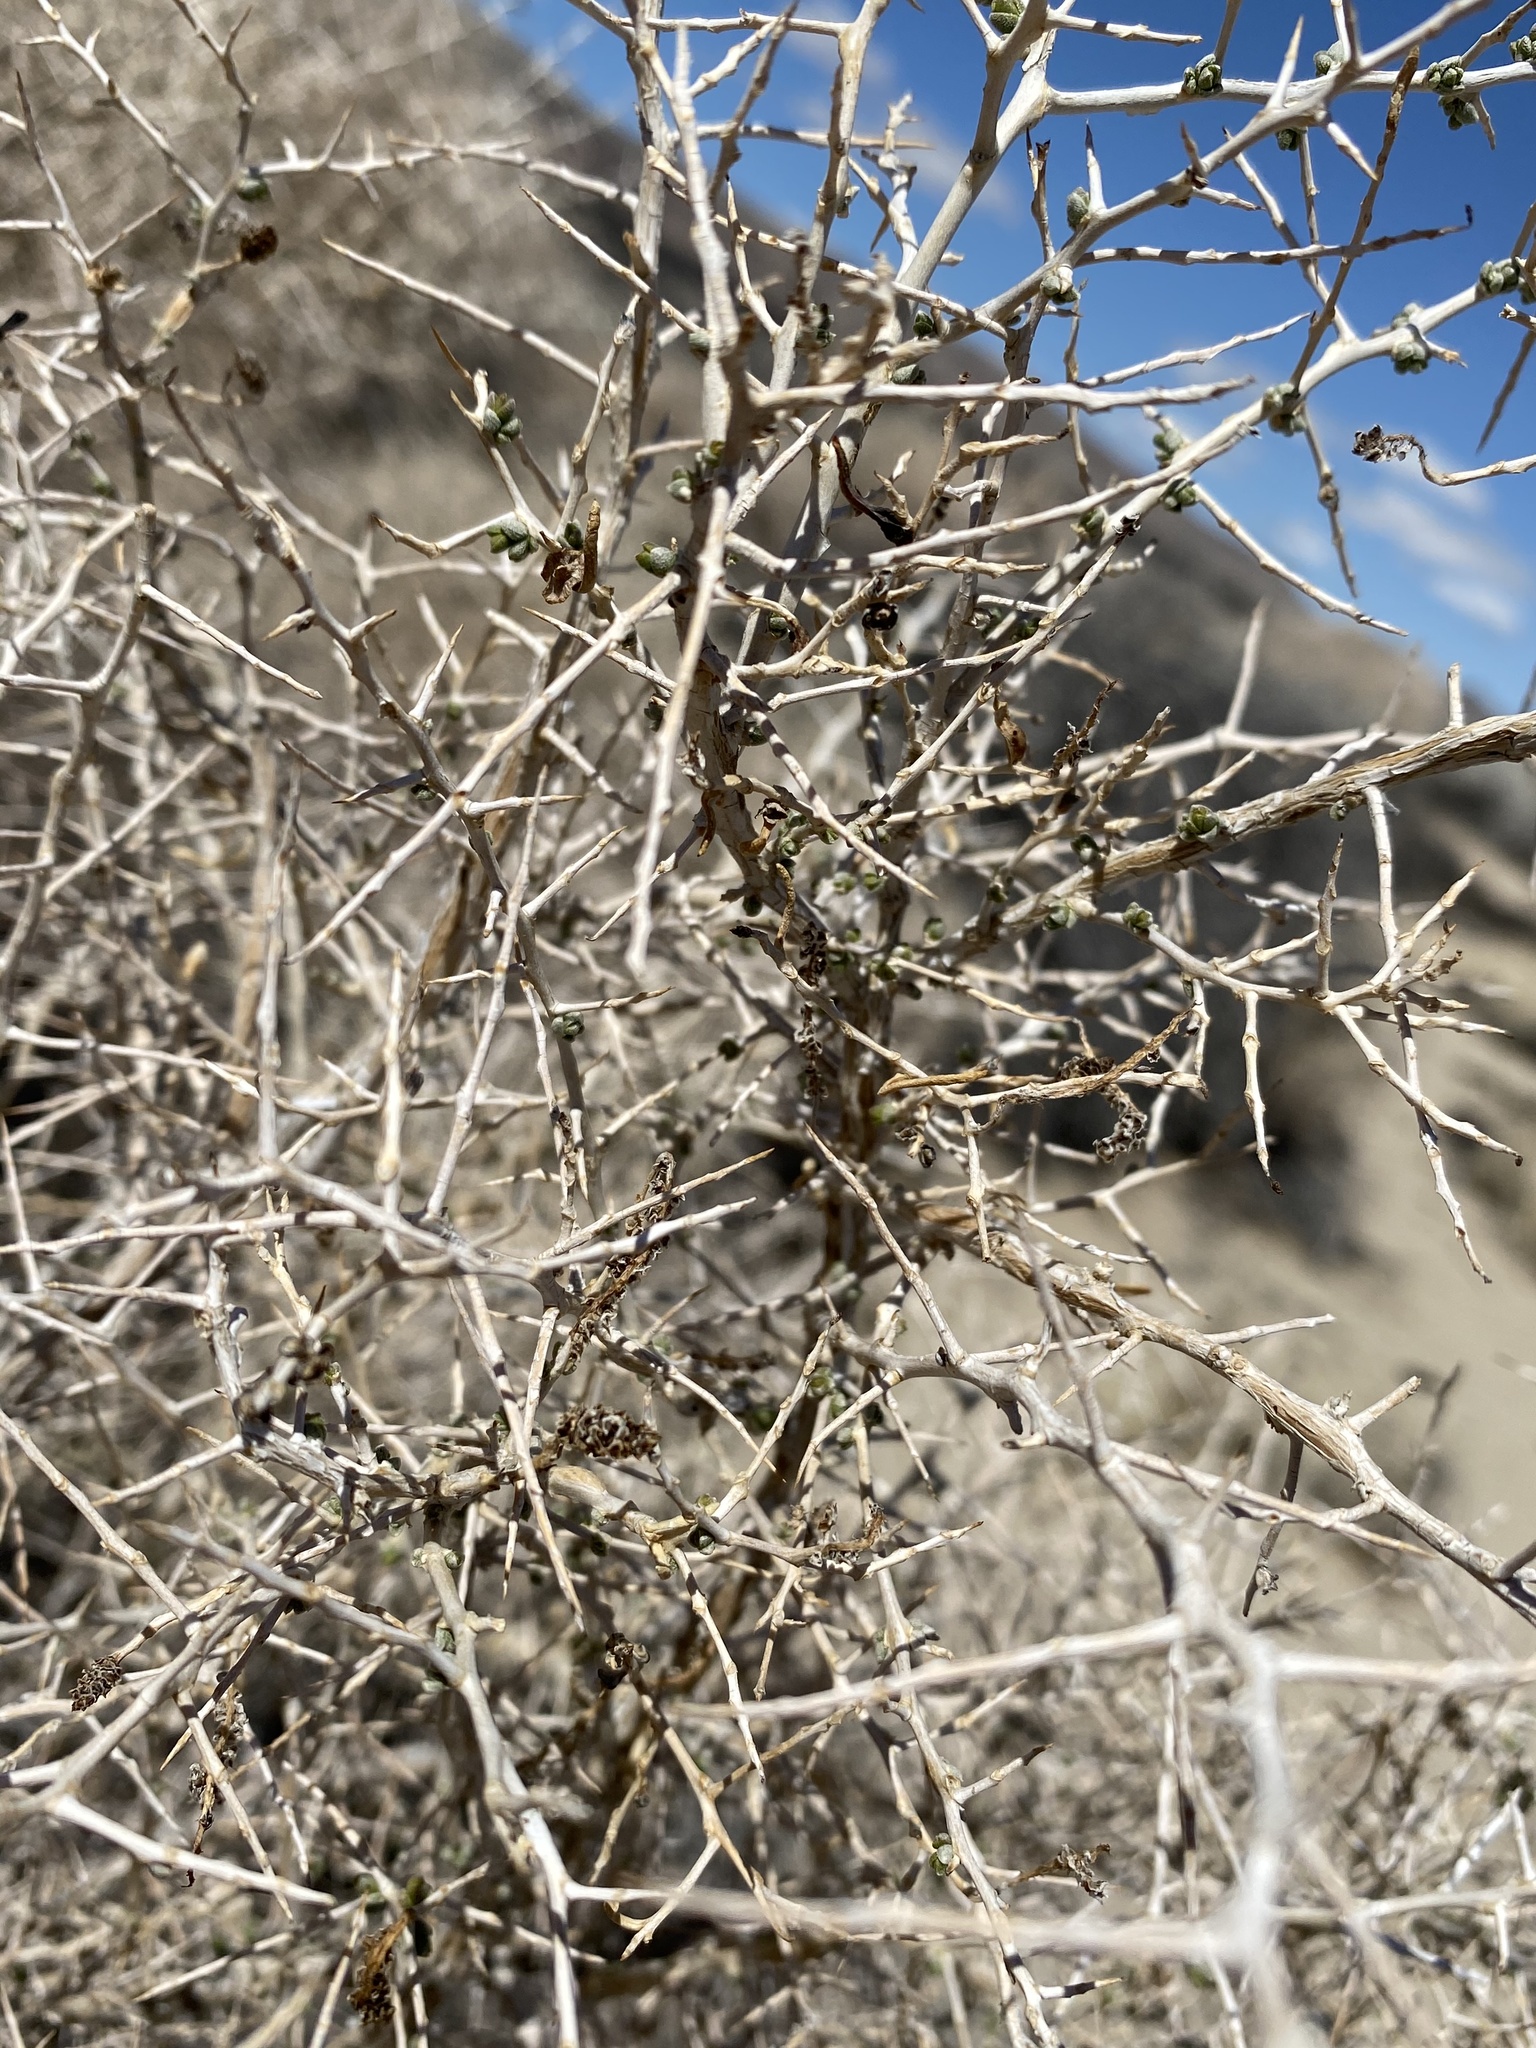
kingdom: Plantae
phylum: Tracheophyta
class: Magnoliopsida
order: Caryophyllales
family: Sarcobataceae
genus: Sarcobatus
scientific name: Sarcobatus vermiculatus
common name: Greasewood
